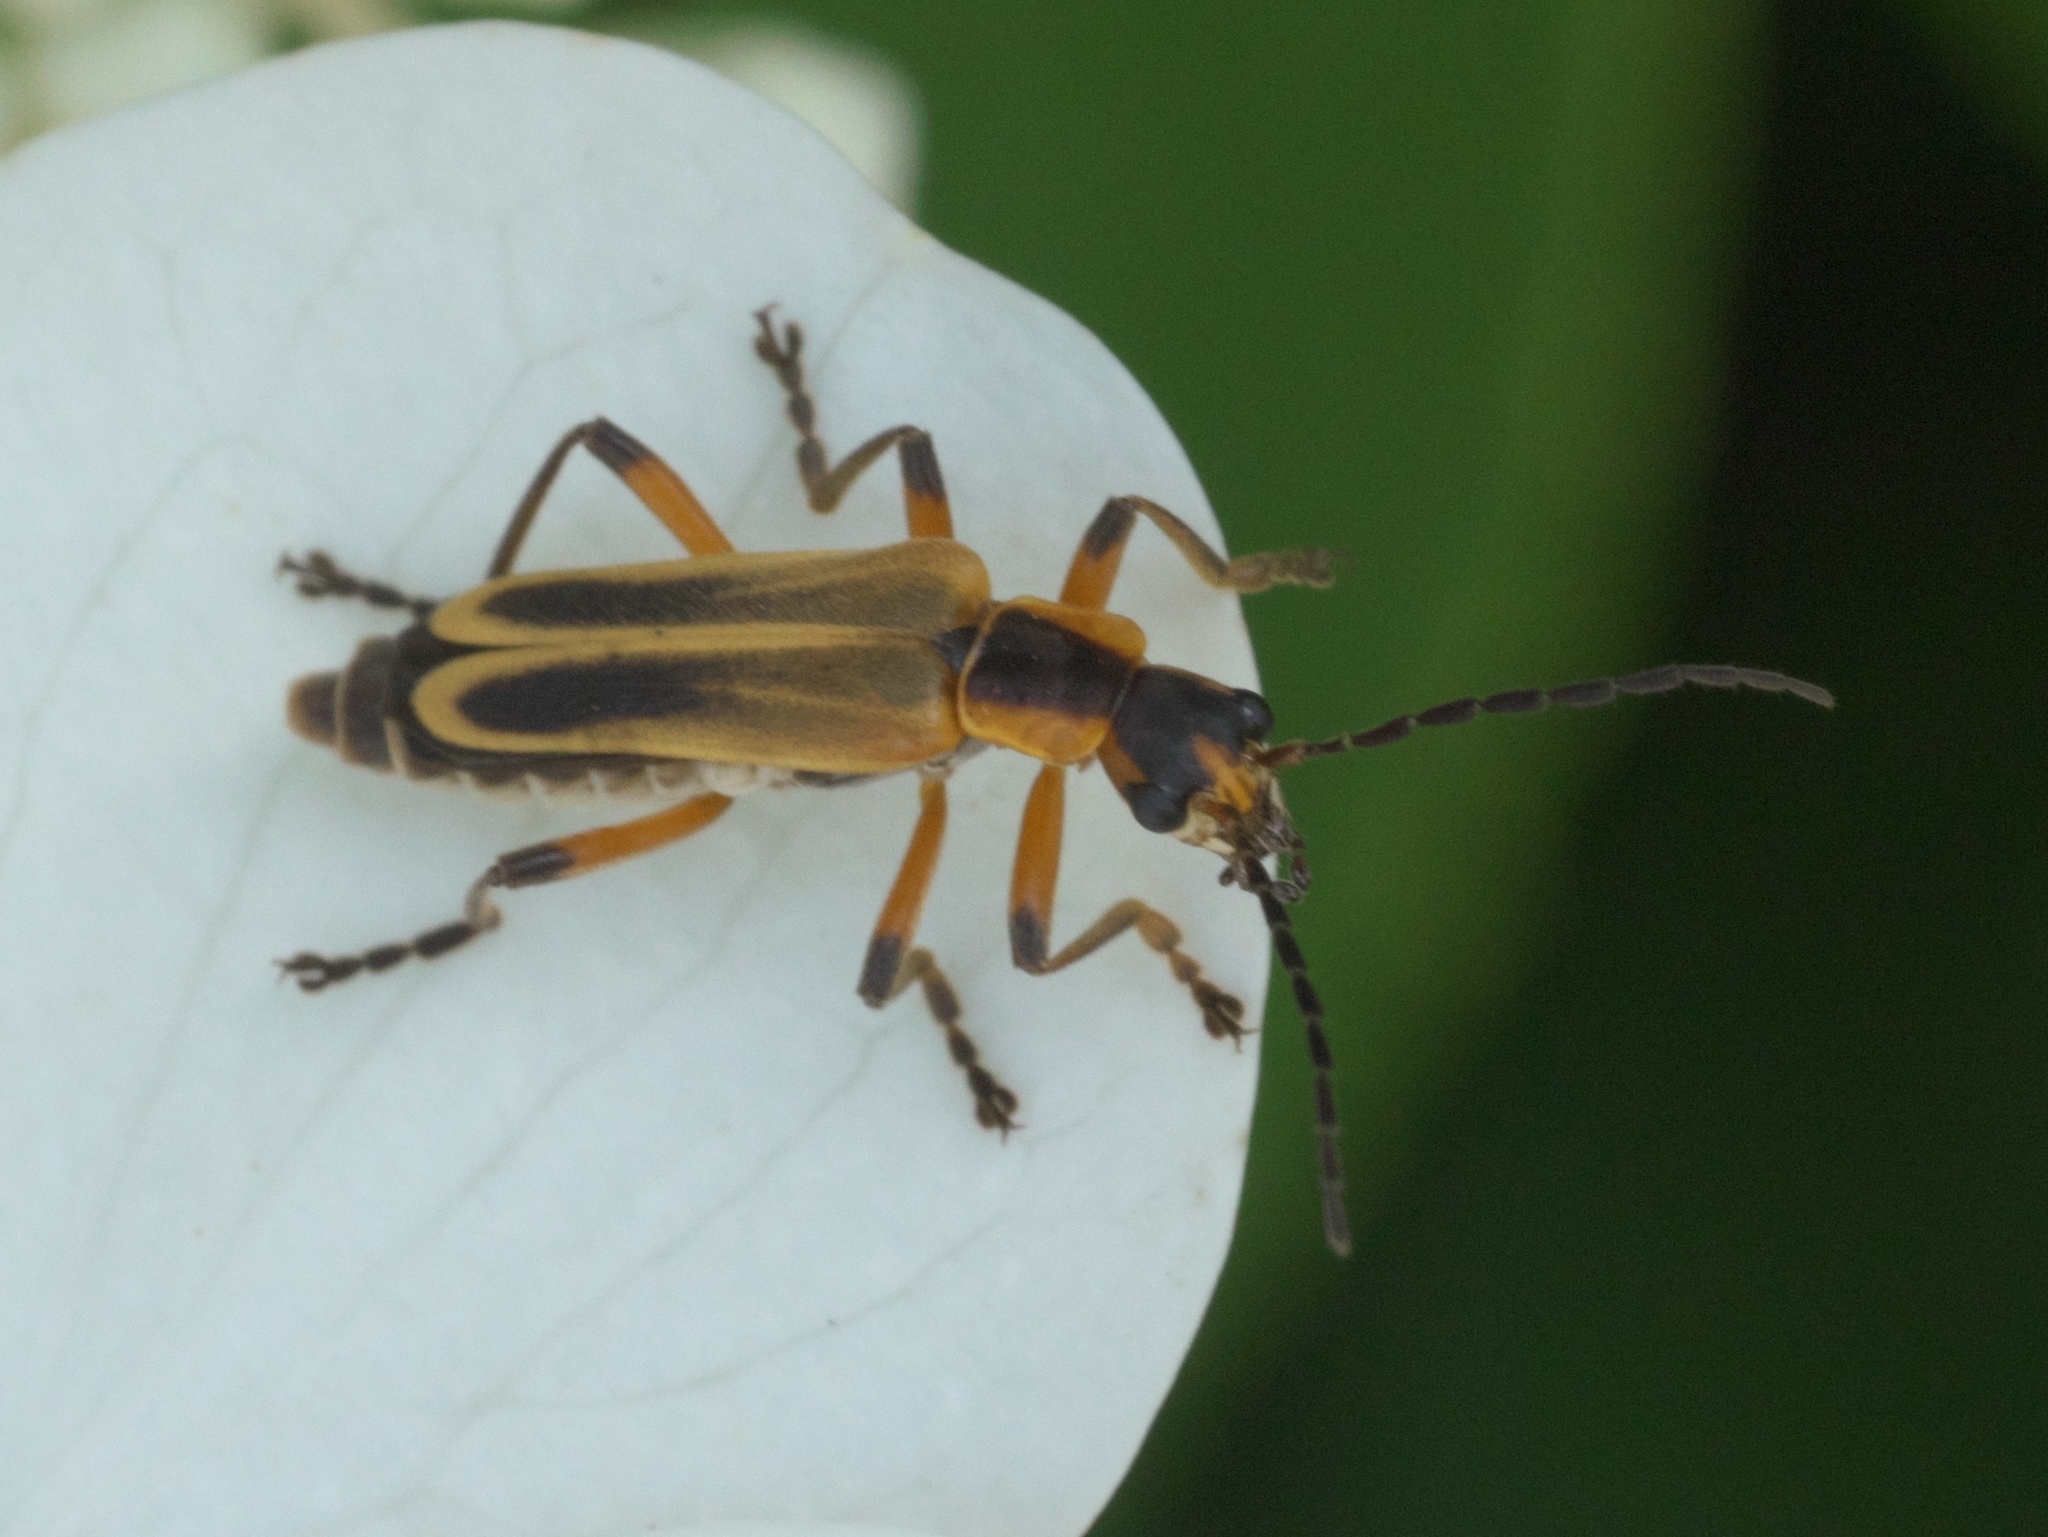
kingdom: Animalia
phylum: Arthropoda
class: Insecta
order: Coleoptera
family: Cantharidae
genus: Chauliognathus
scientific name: Chauliognathus marginatus
